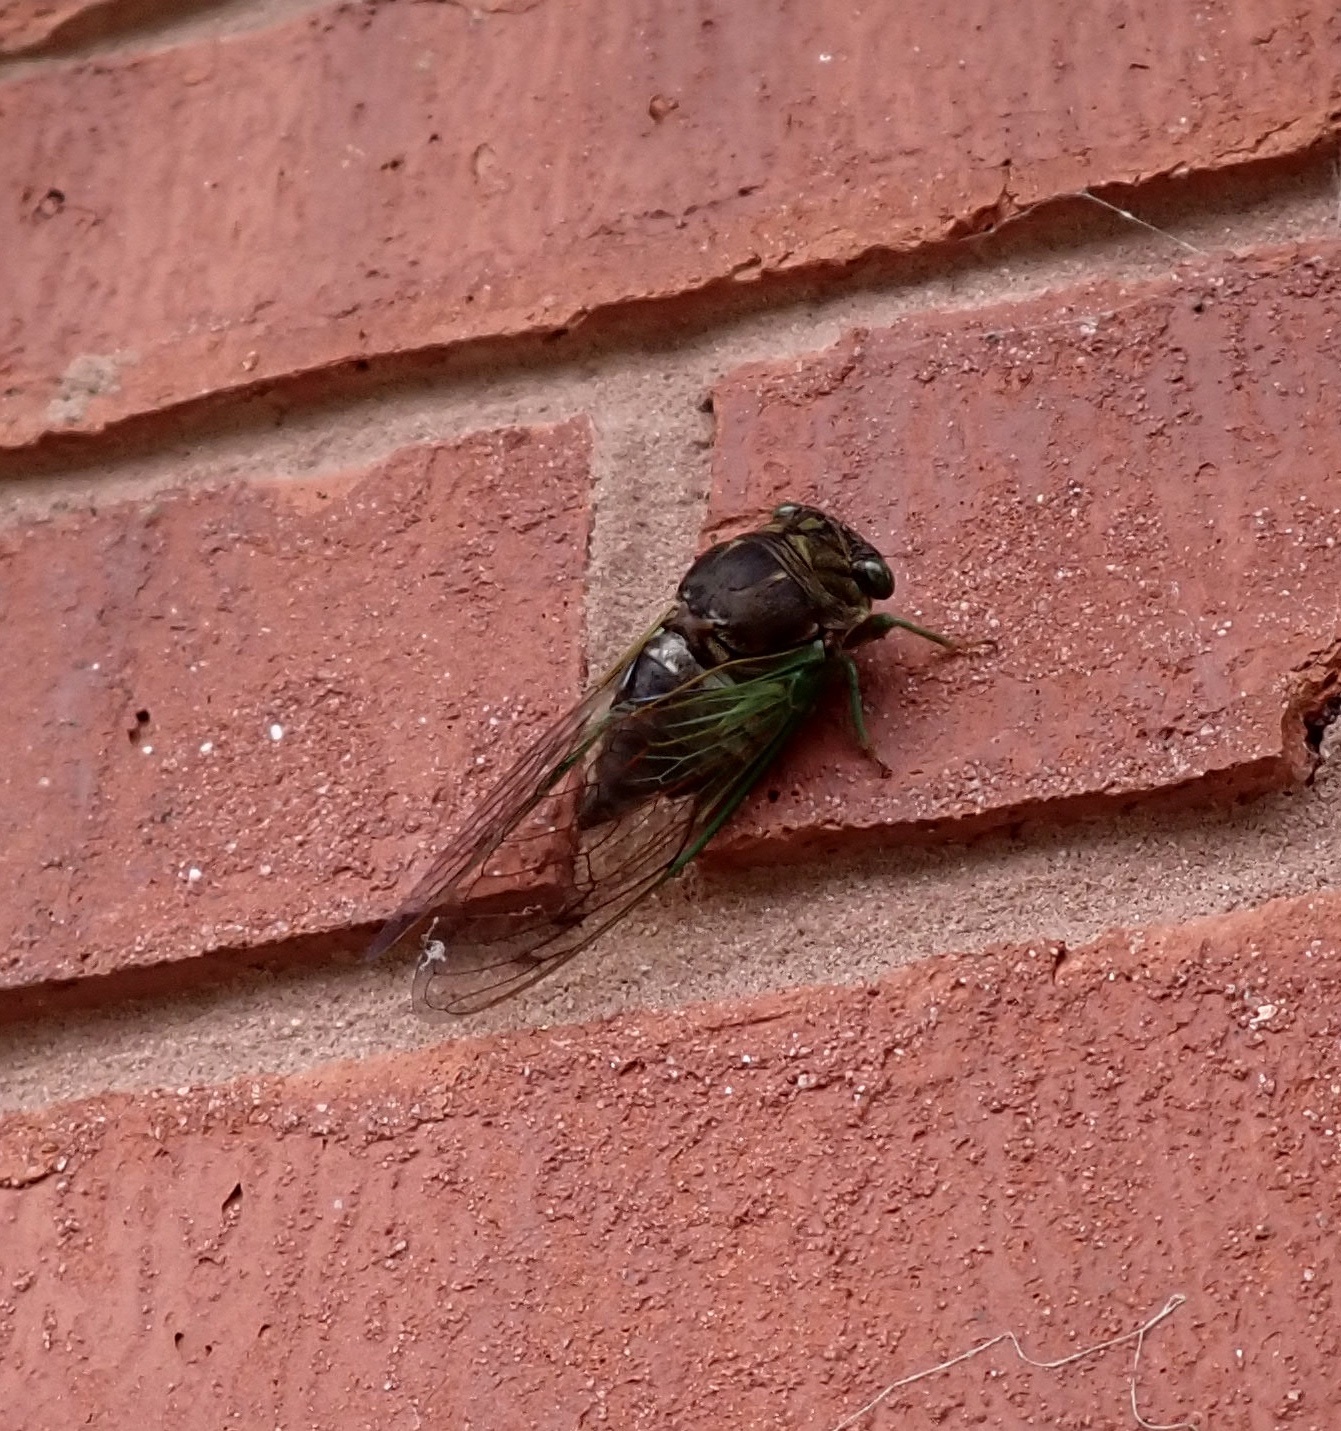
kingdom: Animalia
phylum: Arthropoda
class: Insecta
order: Hemiptera
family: Cicadidae
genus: Neotibicen
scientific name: Neotibicen tibicen
